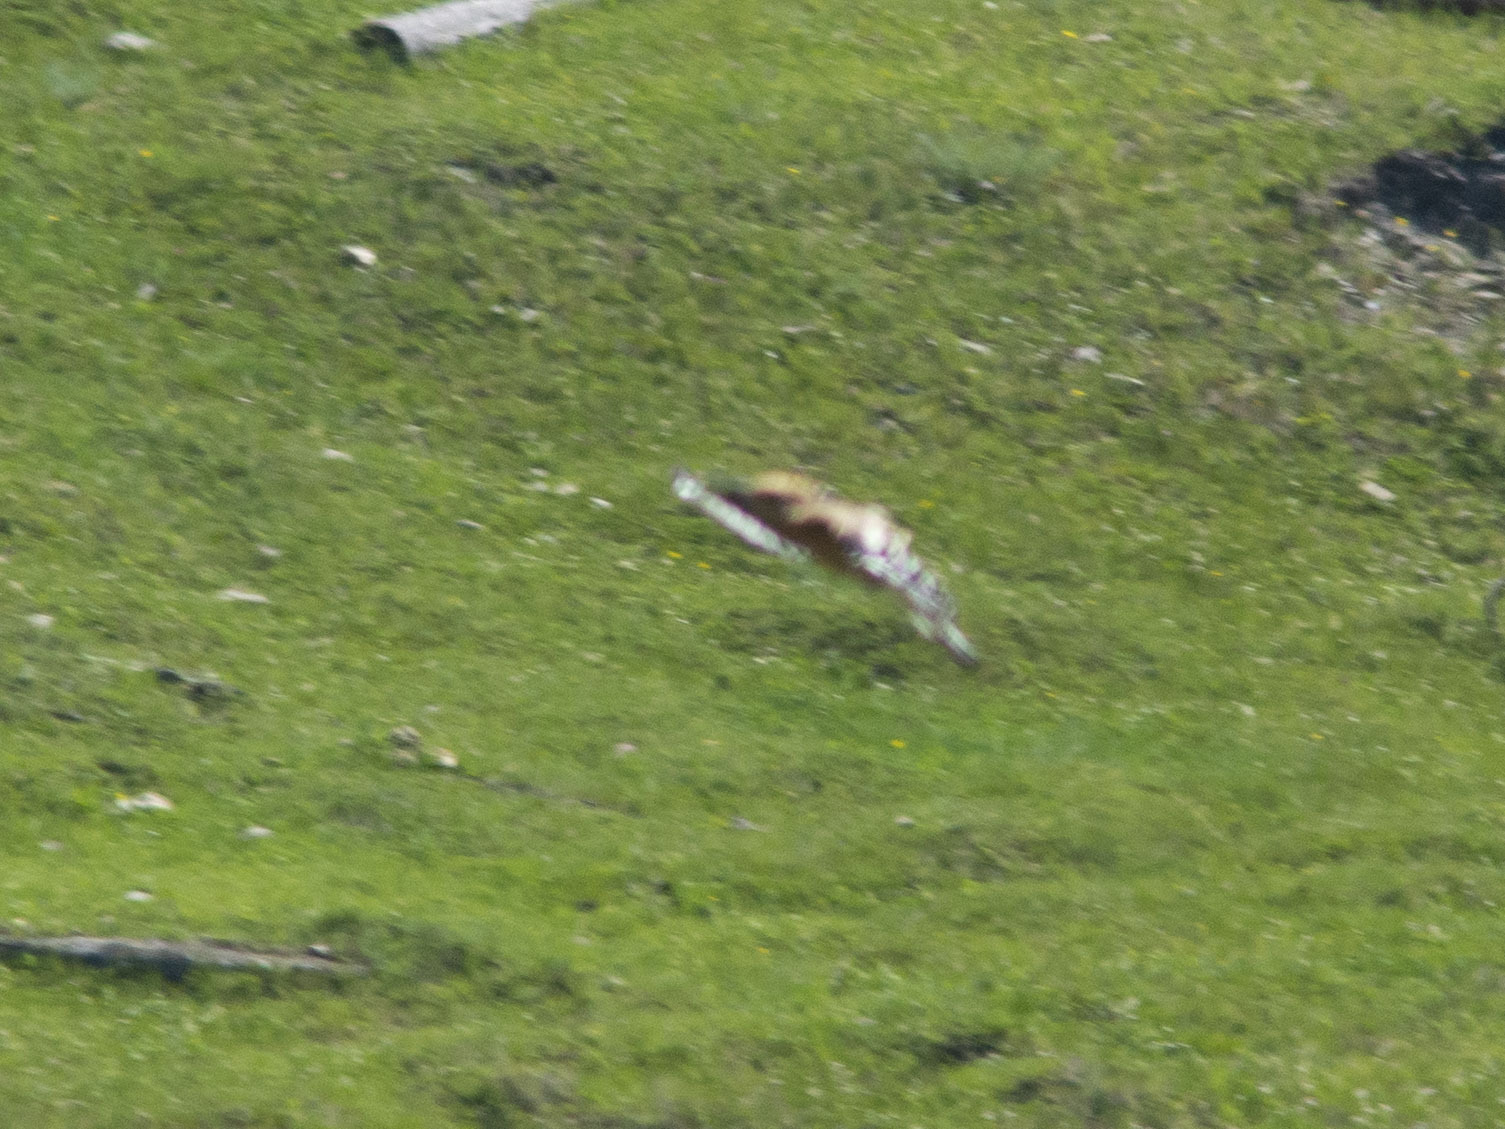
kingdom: Animalia
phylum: Chordata
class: Aves
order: Bucerotiformes
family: Upupidae
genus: Upupa
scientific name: Upupa epops
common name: Eurasian hoopoe
